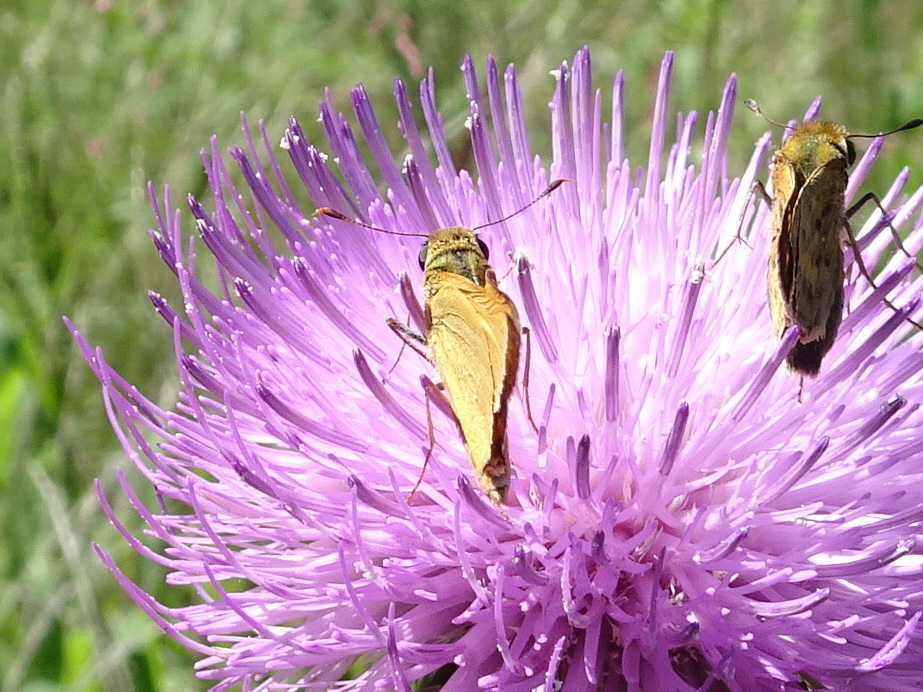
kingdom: Animalia
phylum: Arthropoda
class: Insecta
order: Lepidoptera
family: Hesperiidae
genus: Atrytone
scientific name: Atrytone delaware
